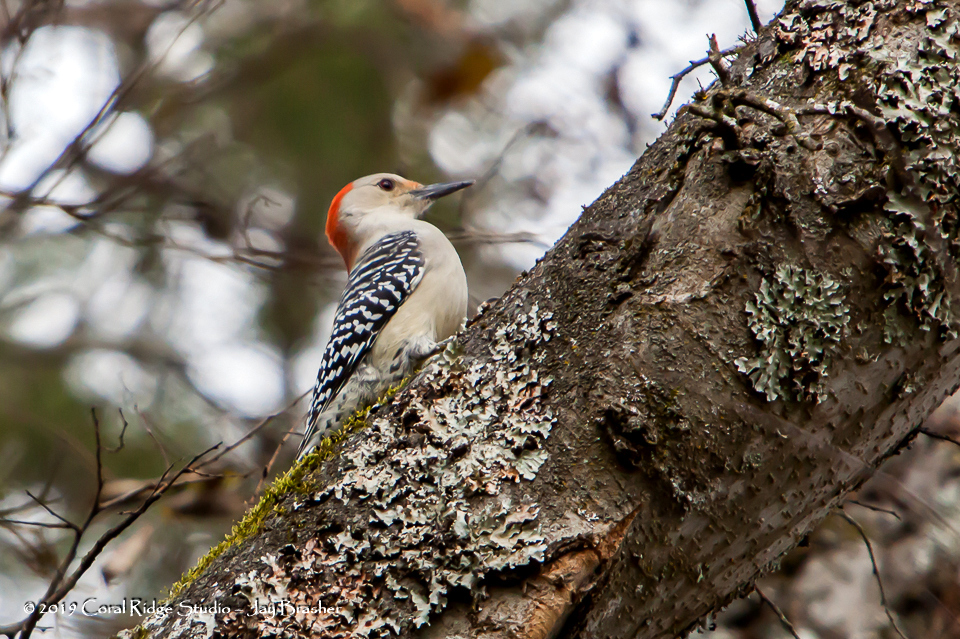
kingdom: Animalia
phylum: Chordata
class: Aves
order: Piciformes
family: Picidae
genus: Melanerpes
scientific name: Melanerpes carolinus
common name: Red-bellied woodpecker
